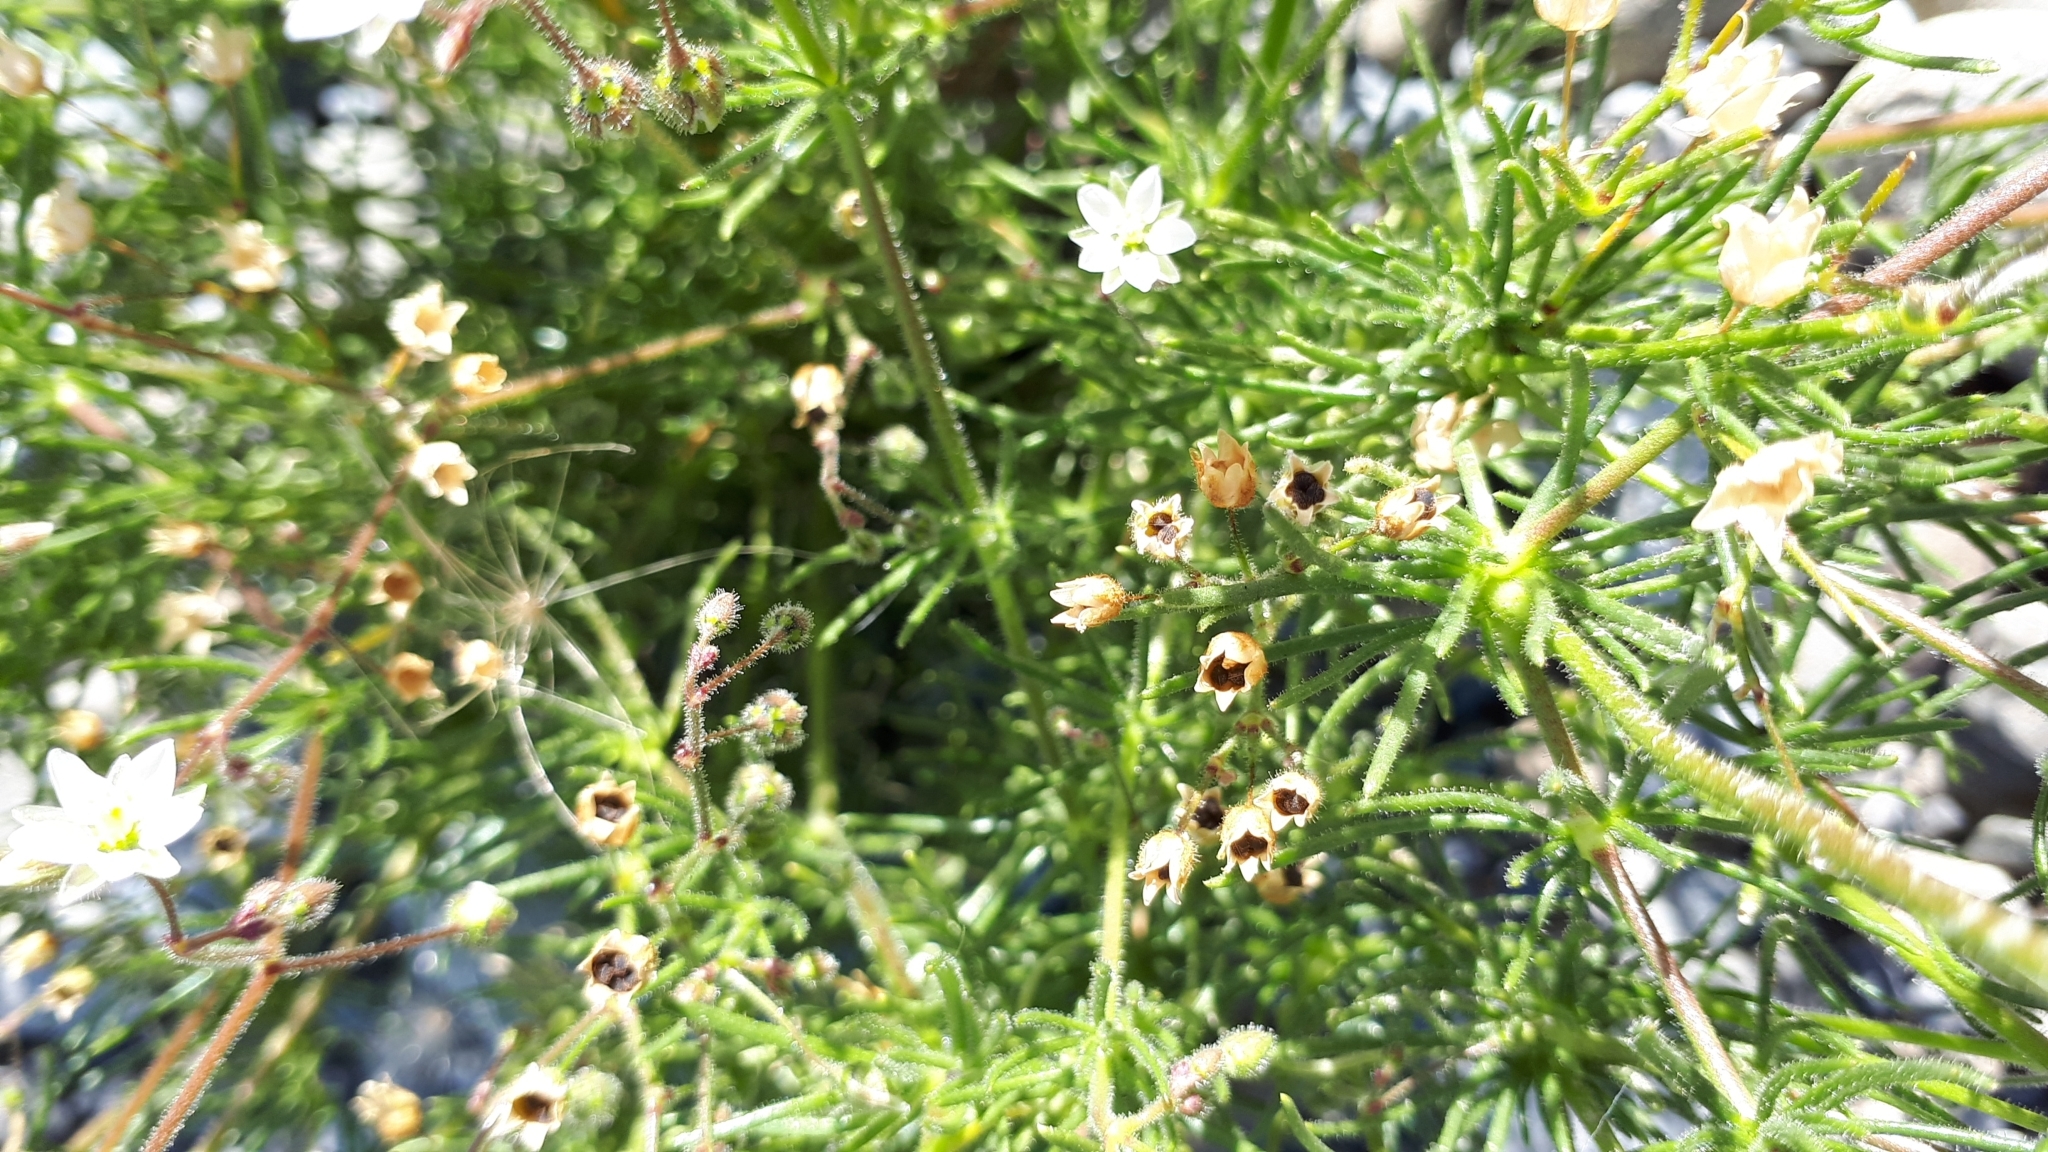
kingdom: Plantae
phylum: Tracheophyta
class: Magnoliopsida
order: Caryophyllales
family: Caryophyllaceae
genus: Spergula
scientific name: Spergula arvensis
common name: Corn spurrey
